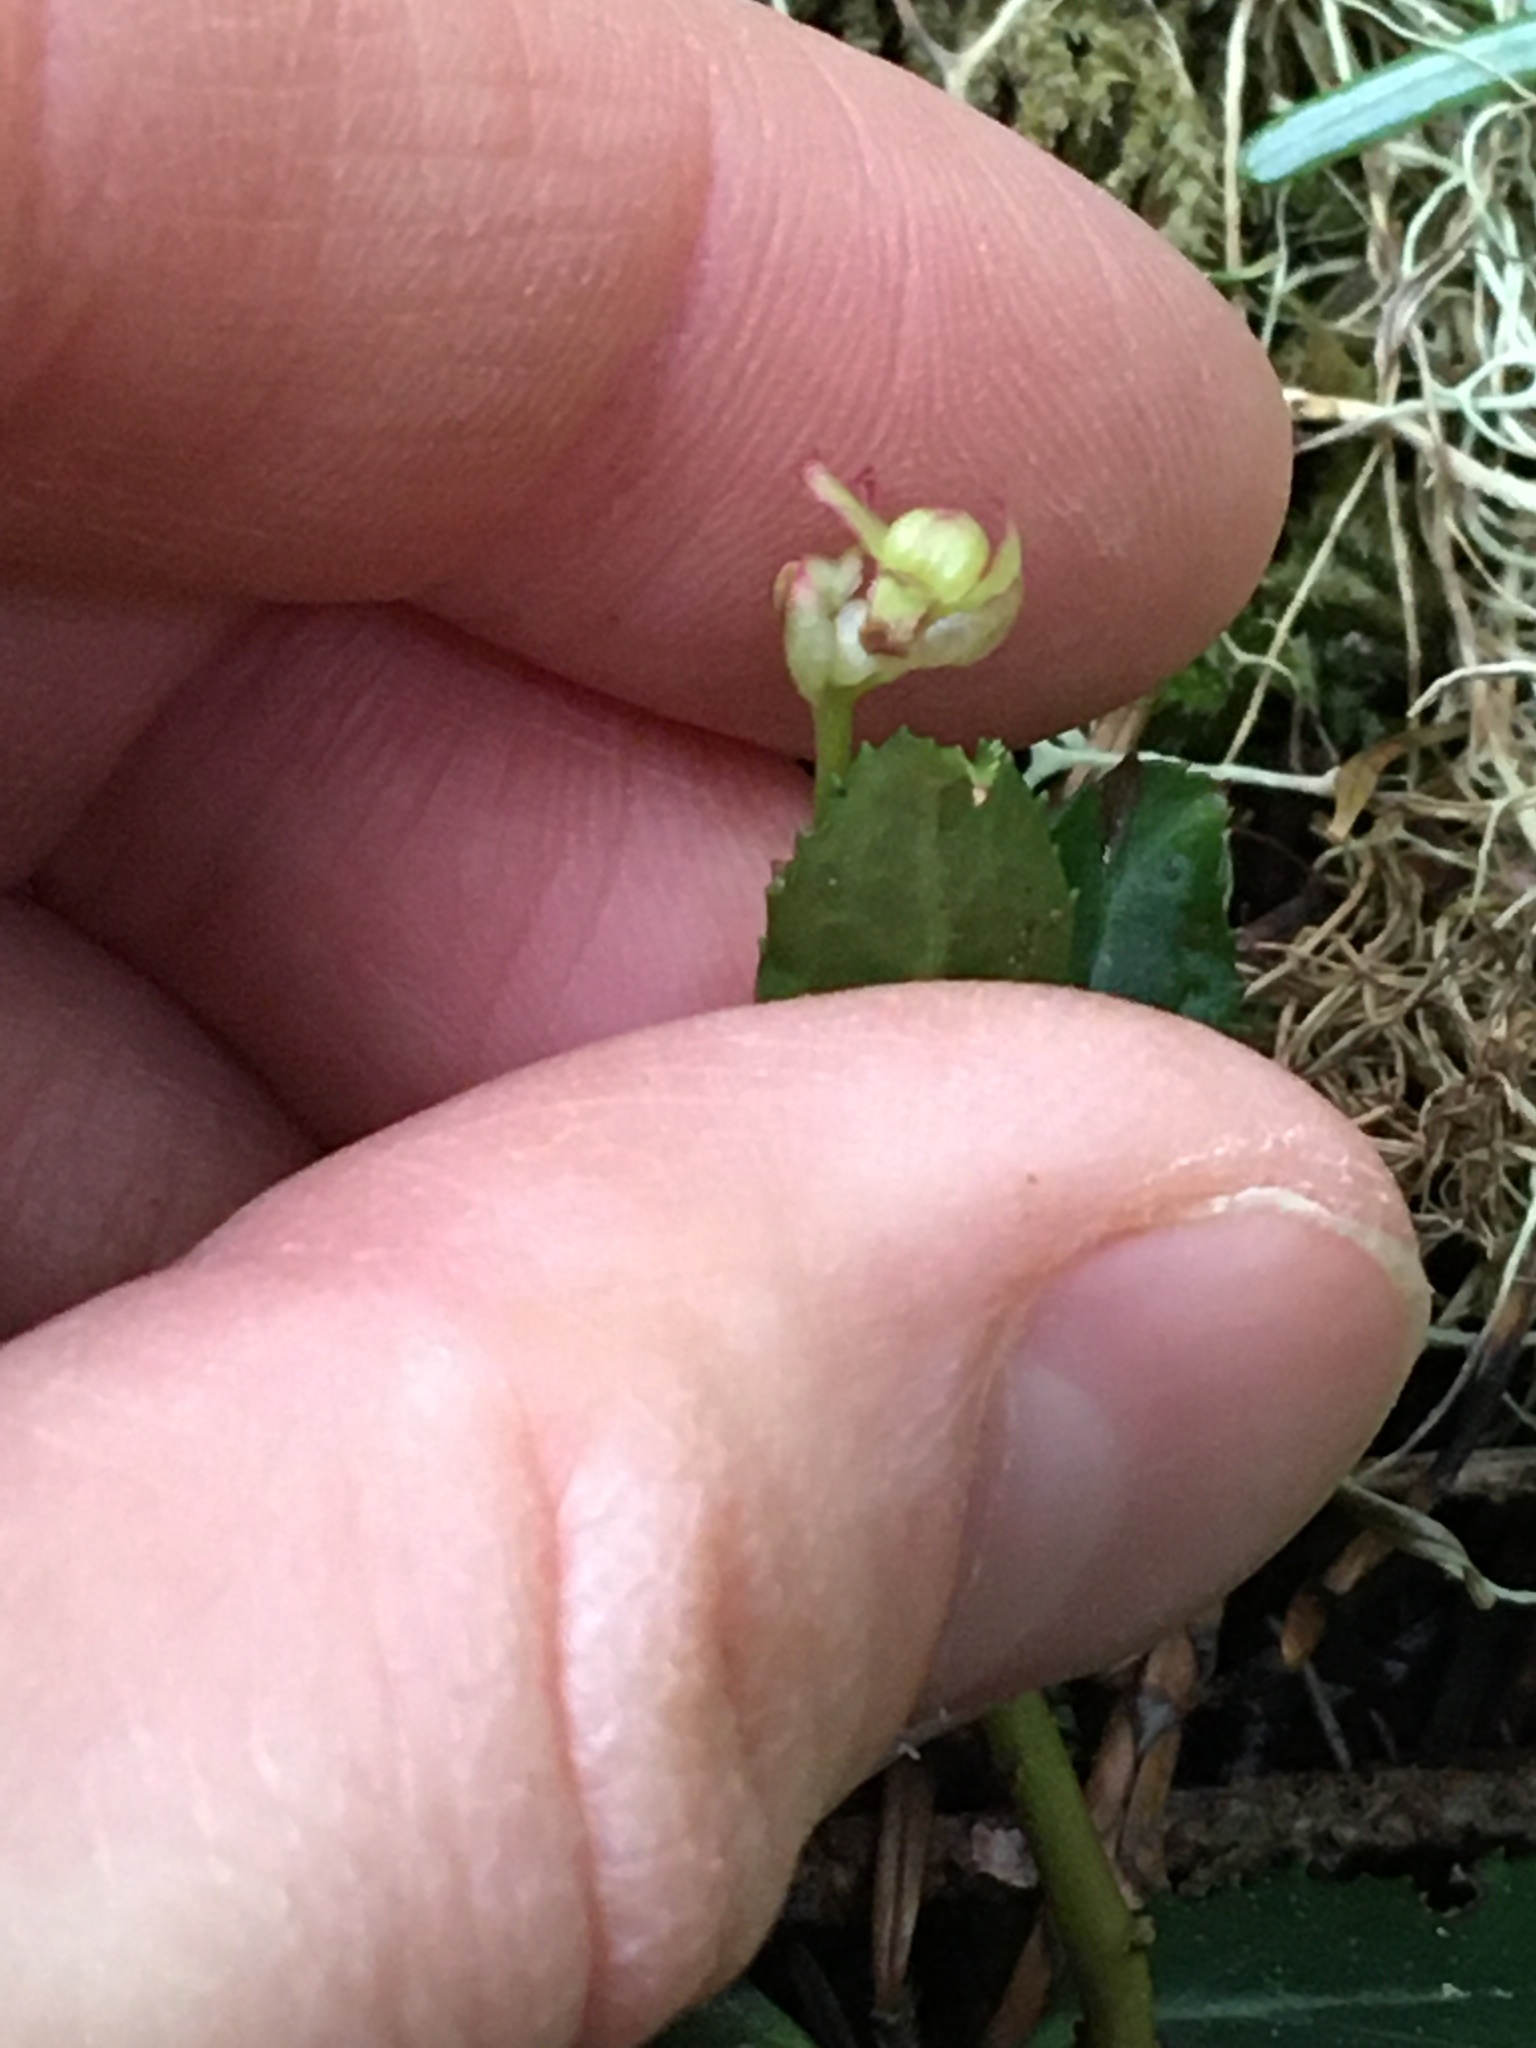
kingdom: Plantae
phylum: Tracheophyta
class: Magnoliopsida
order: Ericales
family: Ericaceae
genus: Chimaphila
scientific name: Chimaphila menziesii
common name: Menzies' pipsissewa
